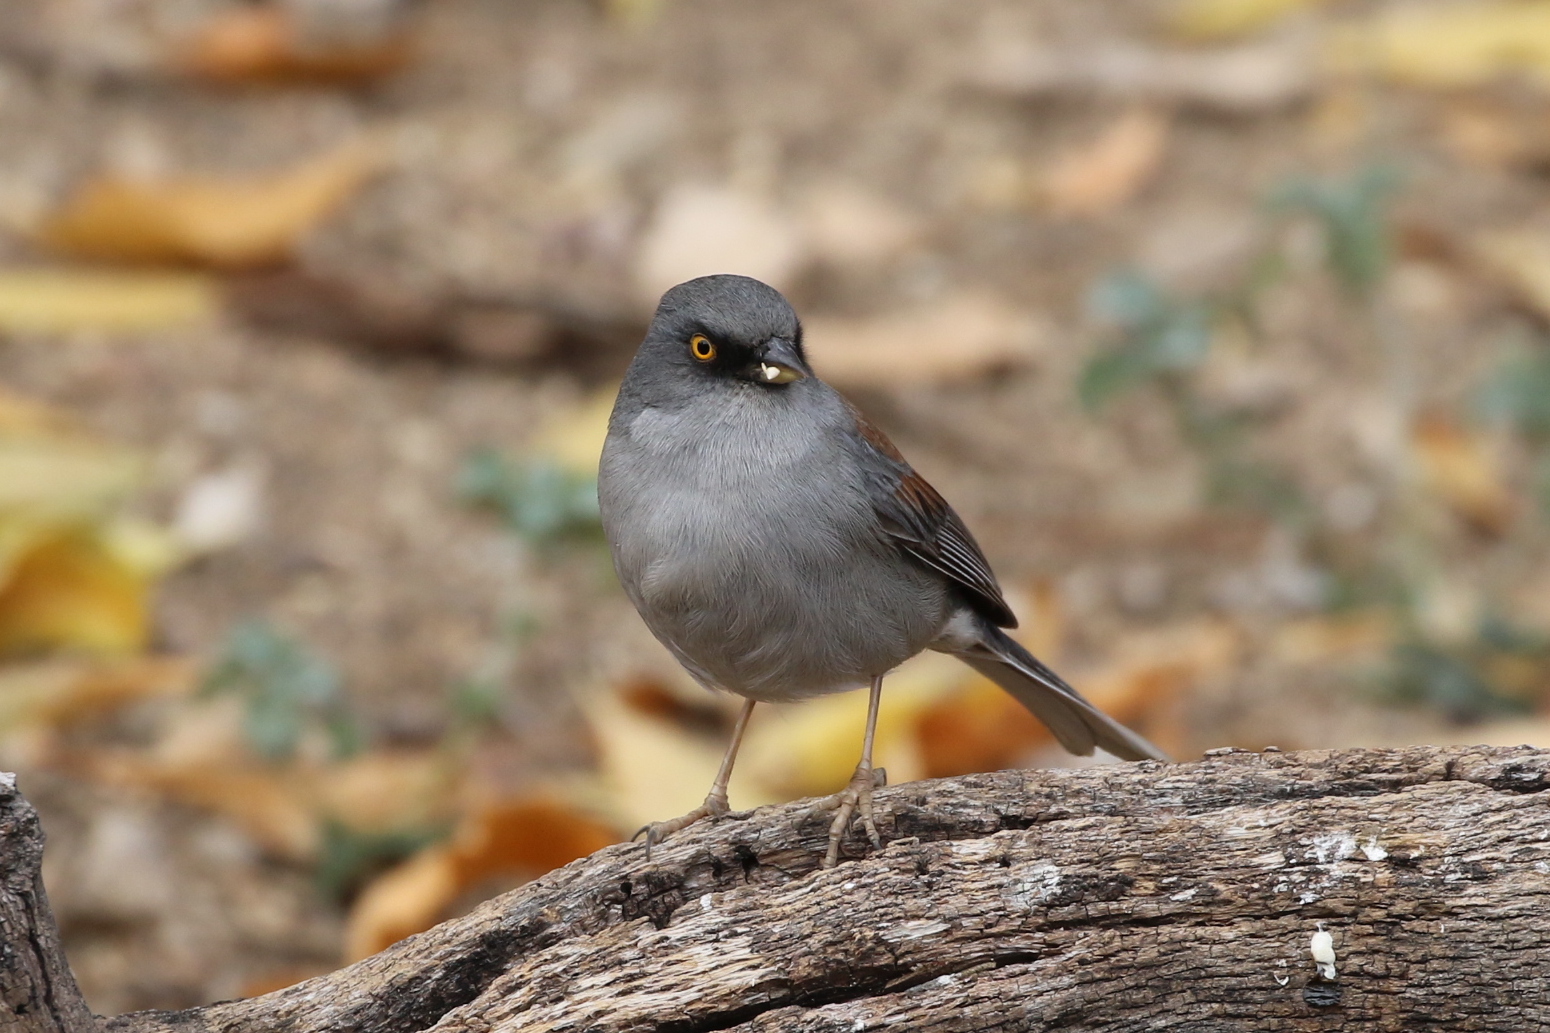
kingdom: Animalia
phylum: Chordata
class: Aves
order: Passeriformes
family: Passerellidae
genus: Junco
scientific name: Junco phaeonotus
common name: Yellow-eyed junco
